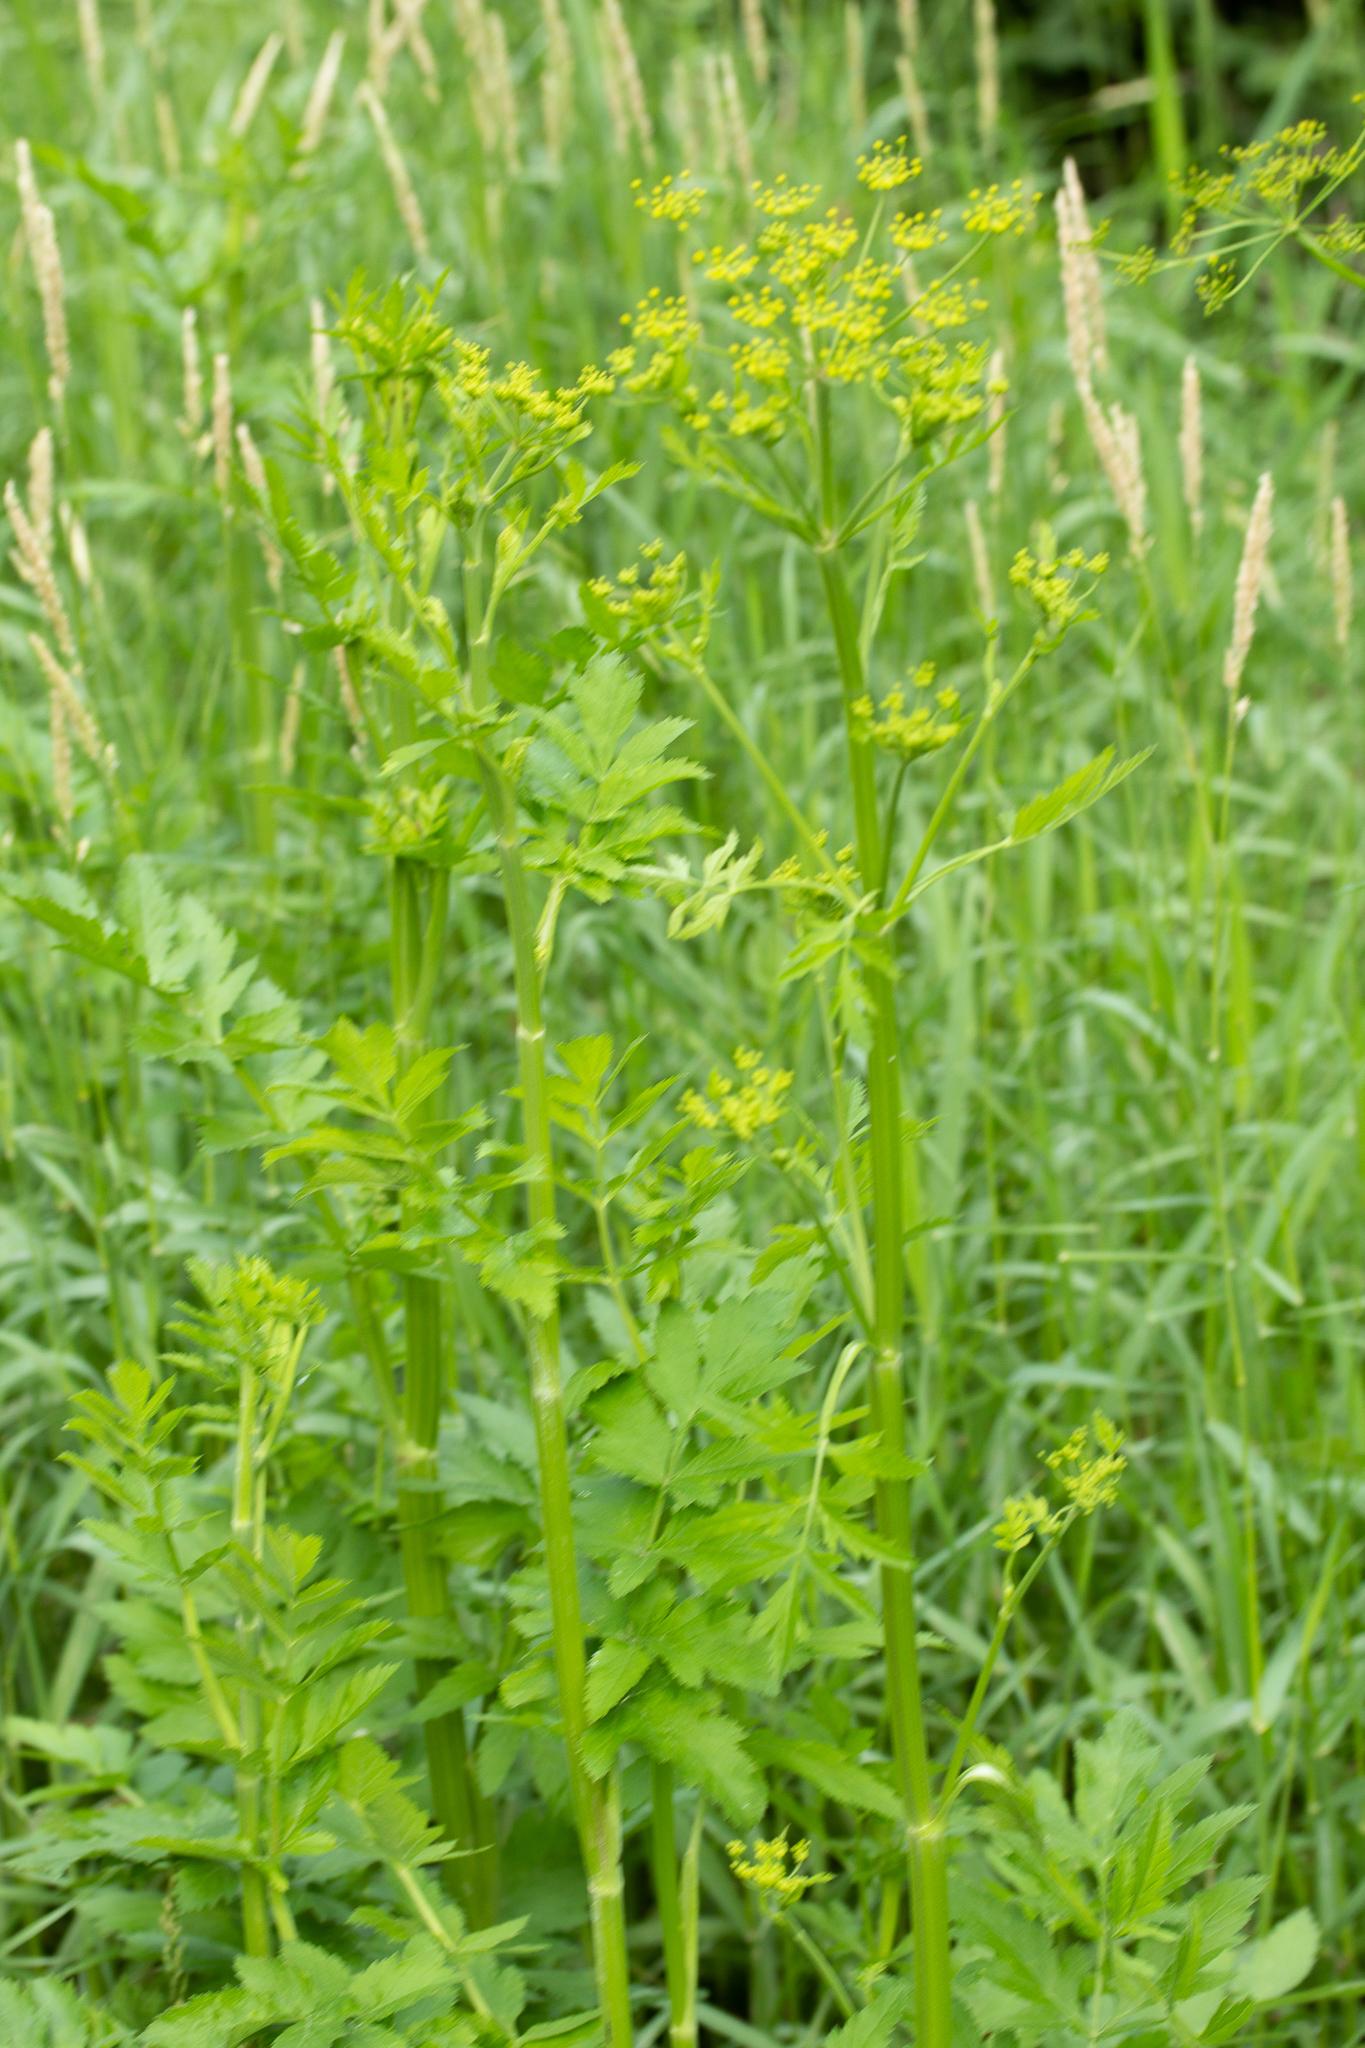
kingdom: Plantae
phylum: Tracheophyta
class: Magnoliopsida
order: Apiales
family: Apiaceae
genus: Pastinaca
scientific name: Pastinaca sativa
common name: Wild parsnip
